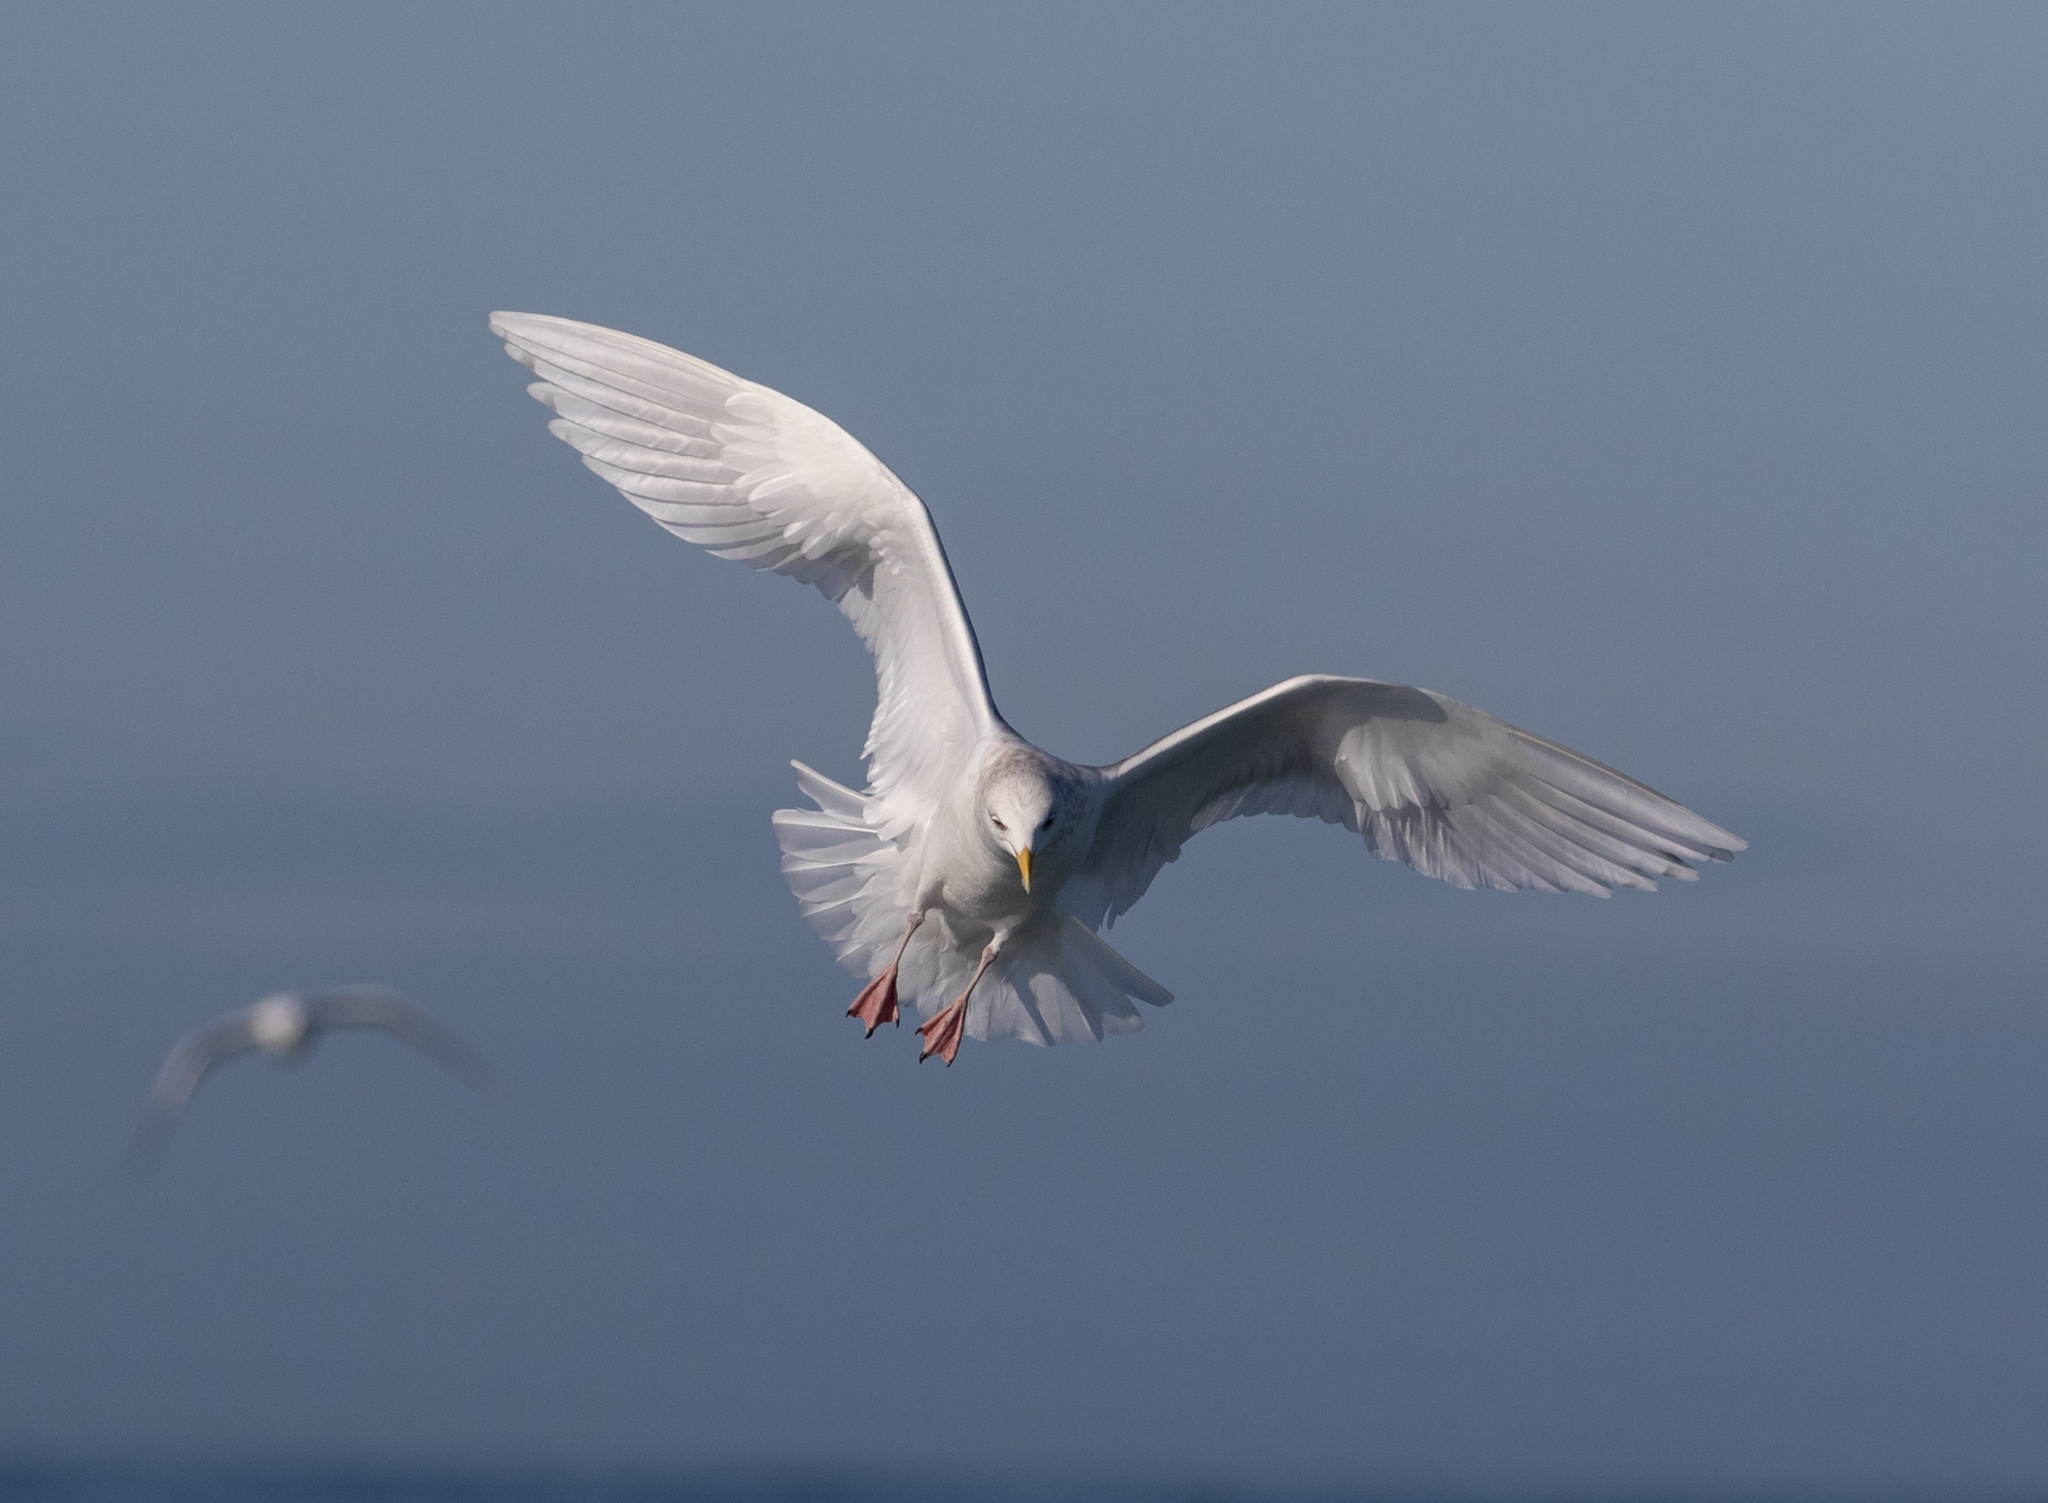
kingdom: Animalia
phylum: Chordata
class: Aves
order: Charadriiformes
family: Laridae
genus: Larus
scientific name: Larus glaucoides
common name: Iceland gull
